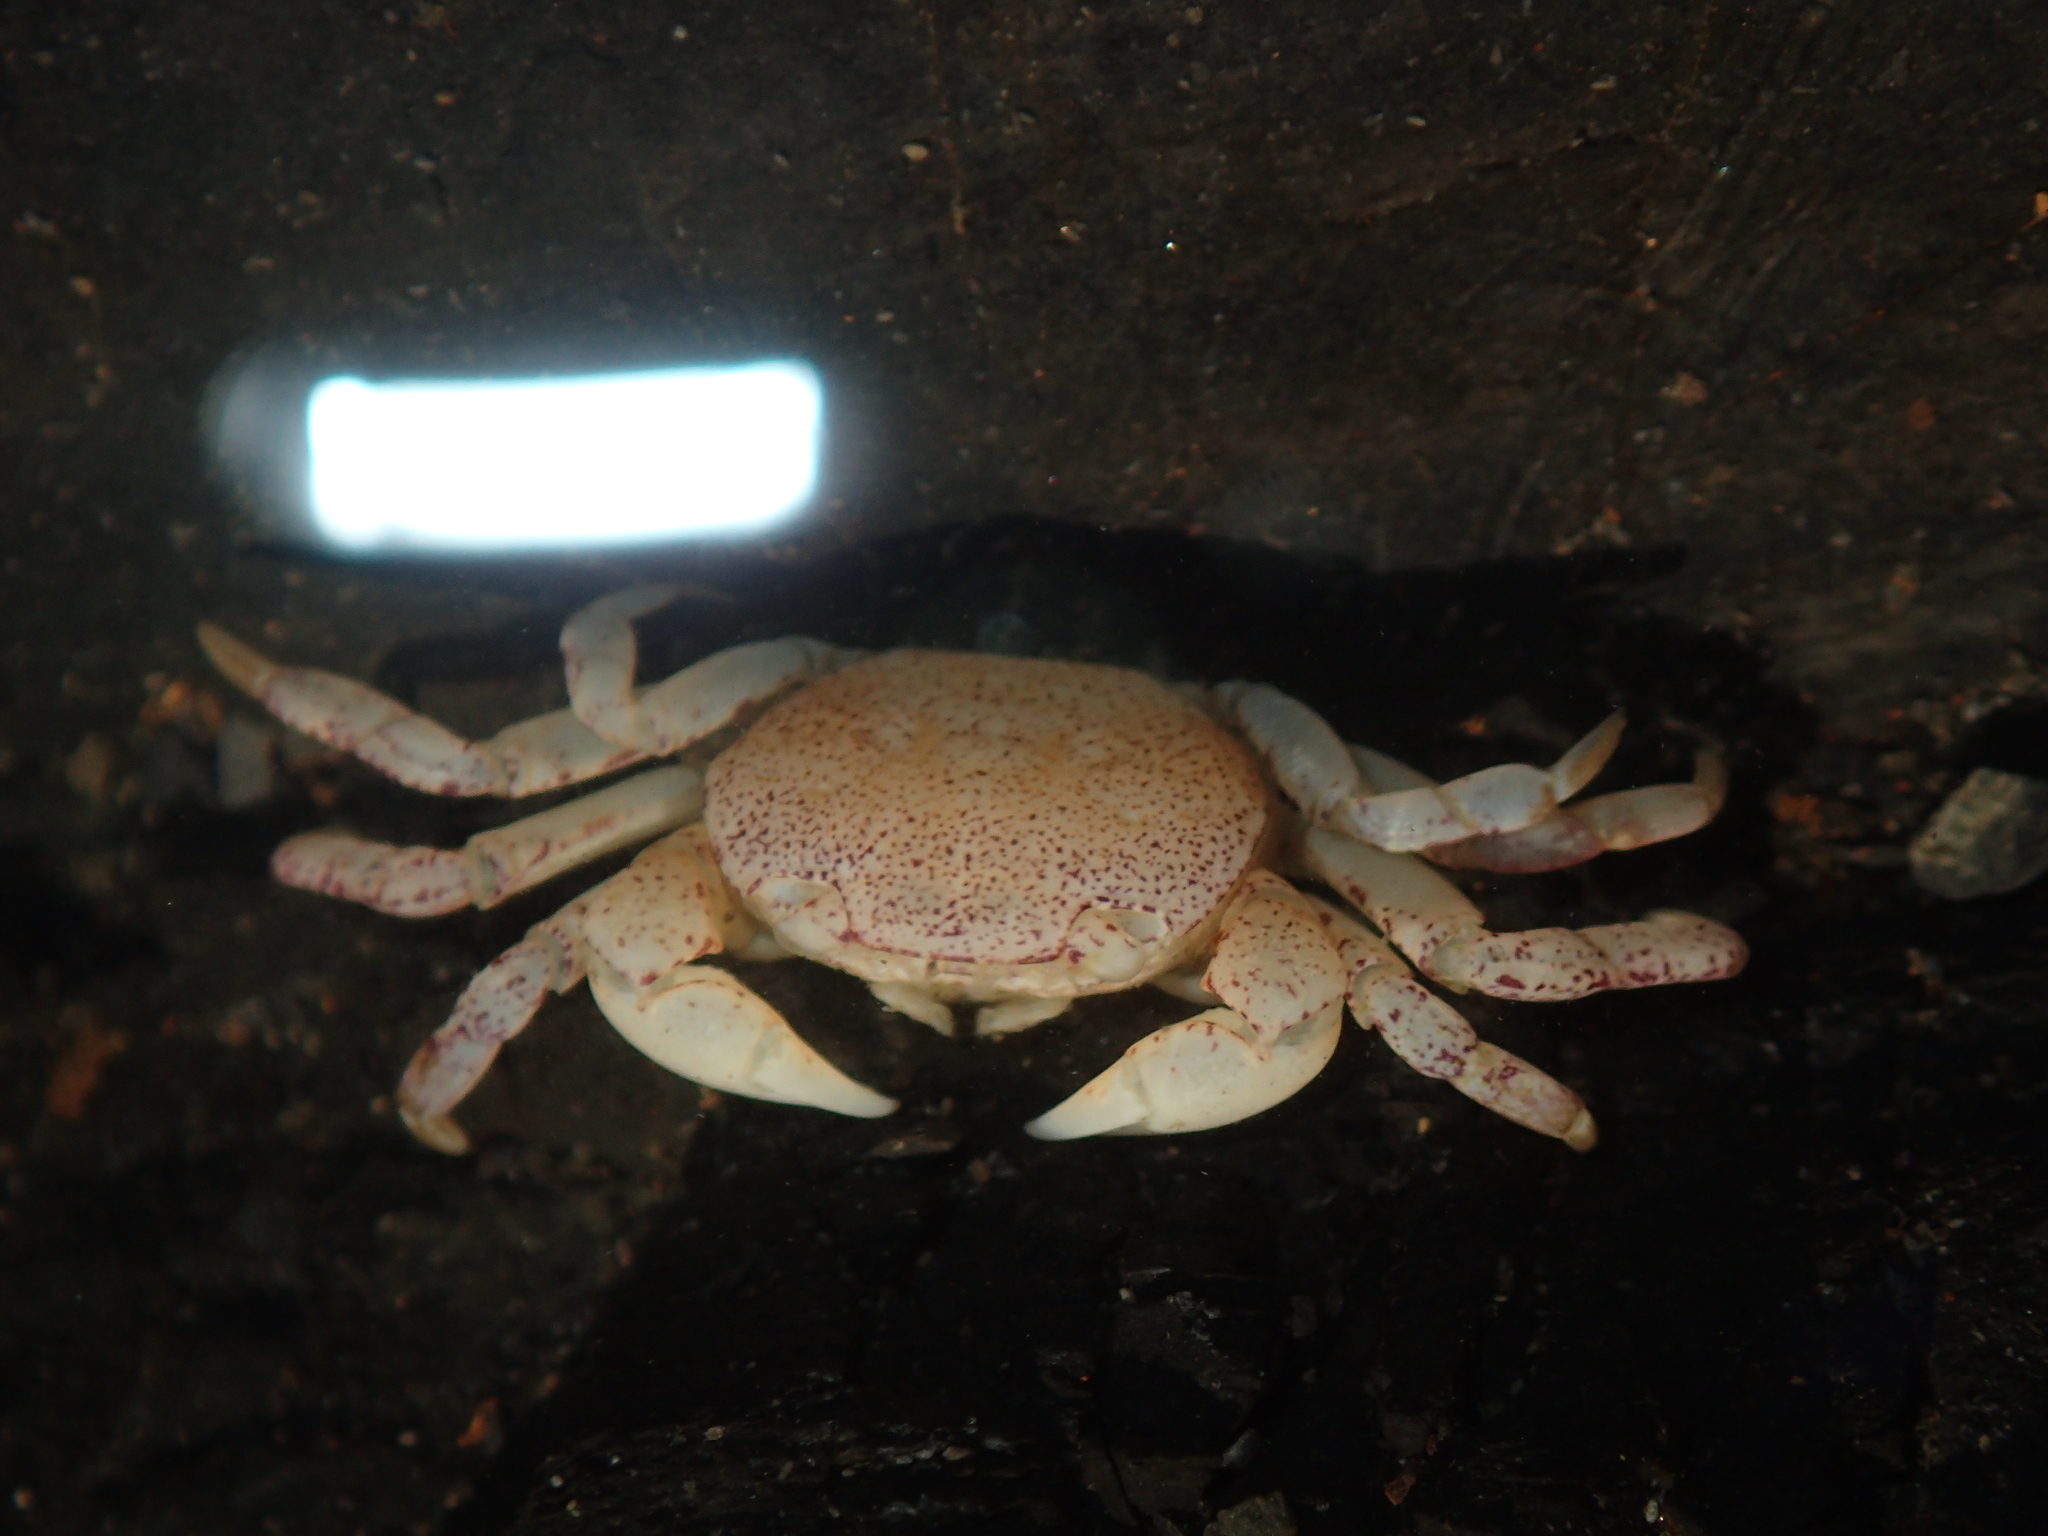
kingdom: Animalia
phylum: Arthropoda
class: Malacostraca
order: Decapoda
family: Varunidae
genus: Cyclograpsus
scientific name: Cyclograpsus lavauxi
